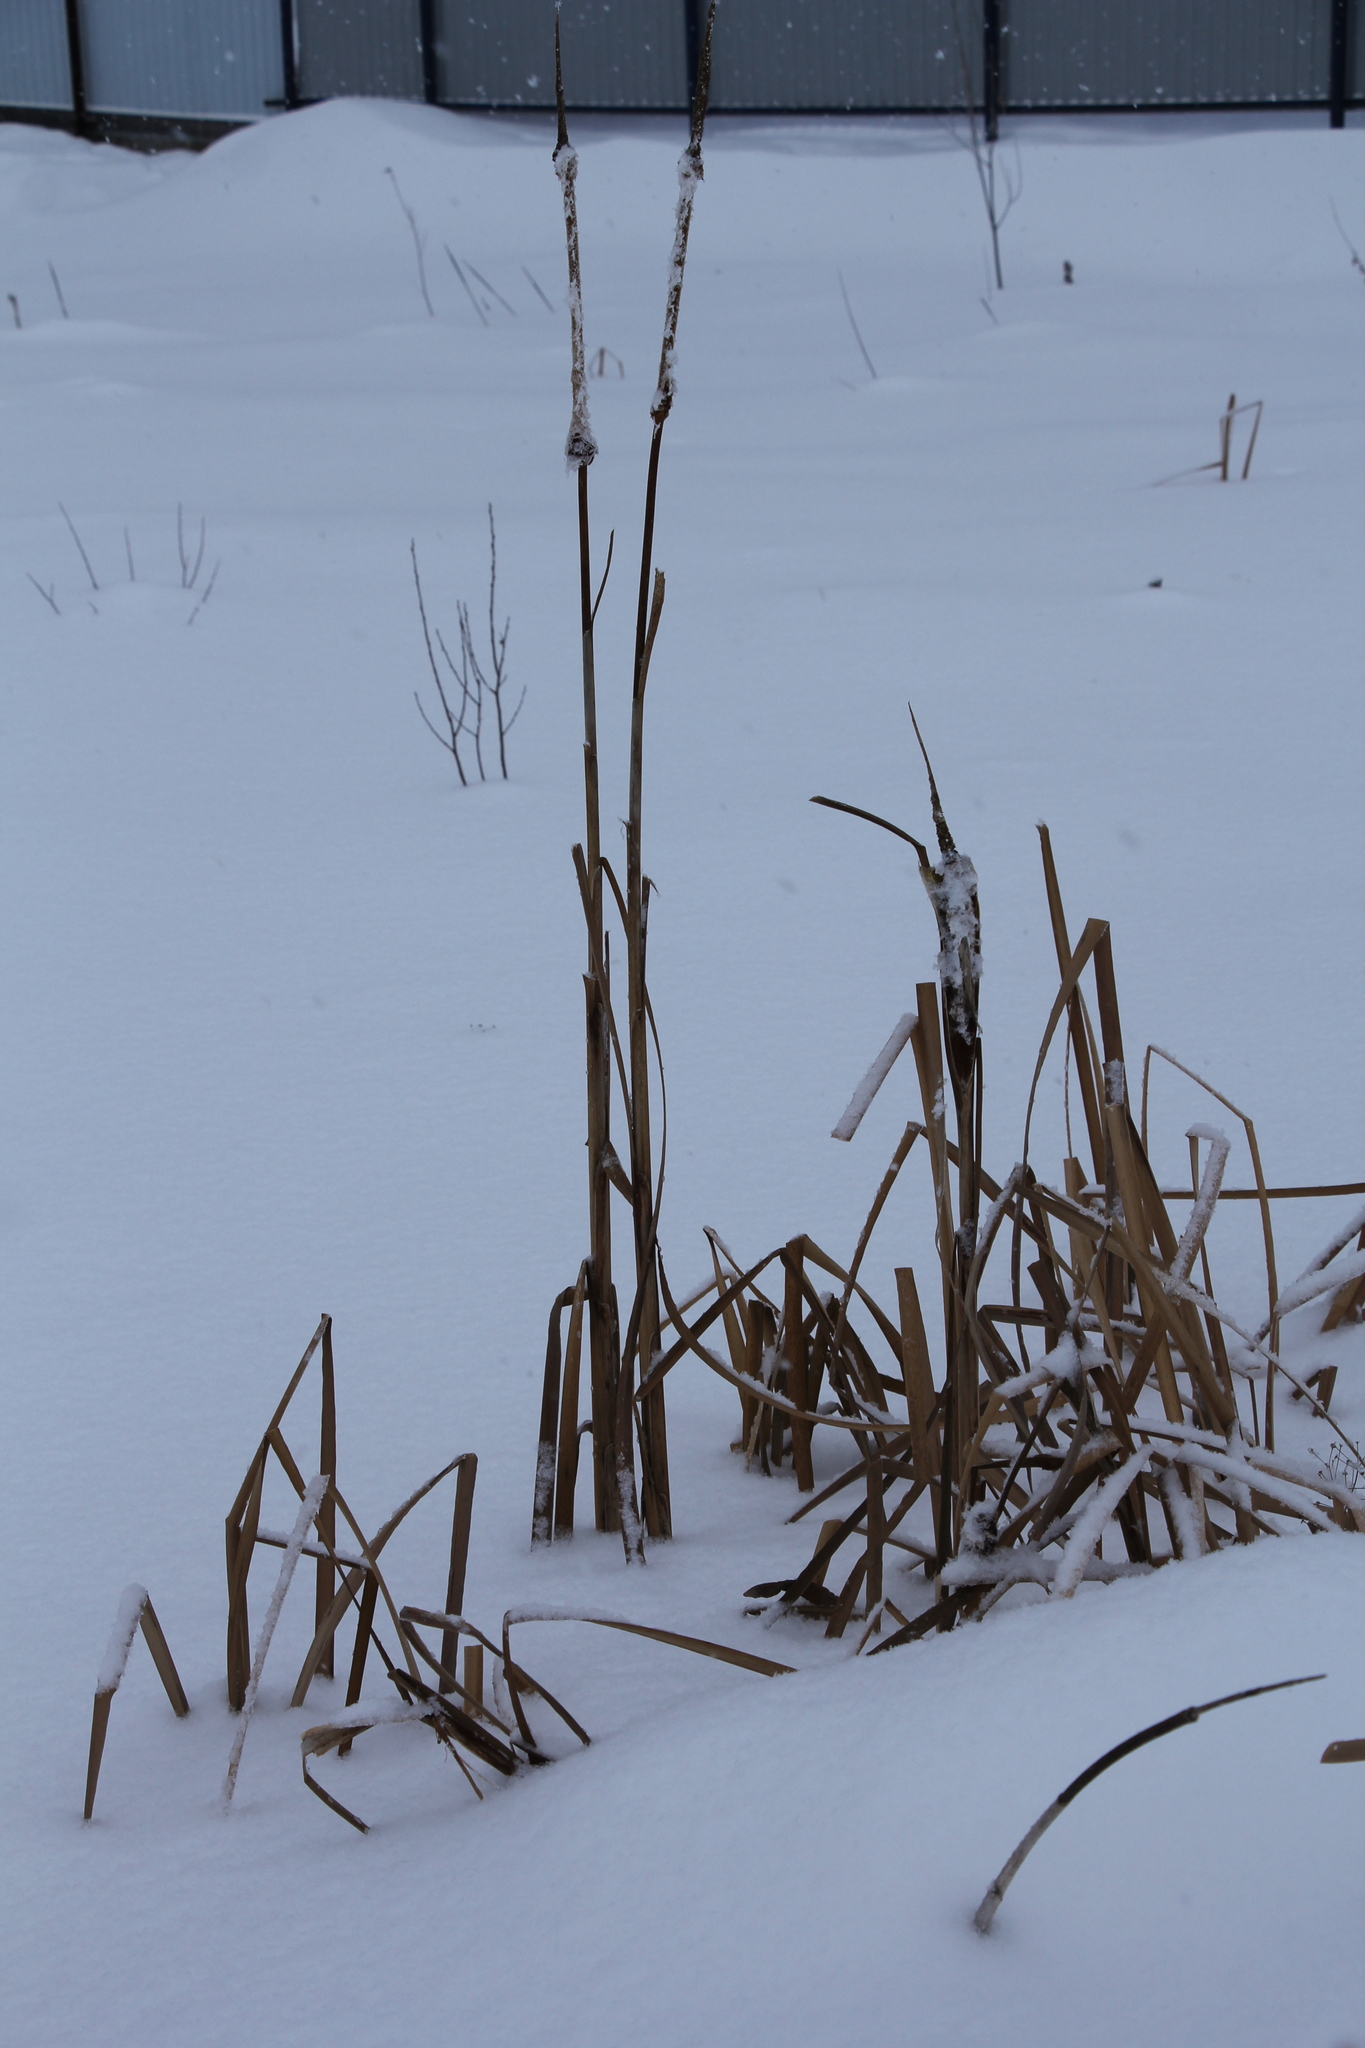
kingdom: Plantae
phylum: Tracheophyta
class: Liliopsida
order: Poales
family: Typhaceae
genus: Typha
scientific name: Typha latifolia
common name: Broadleaf cattail
